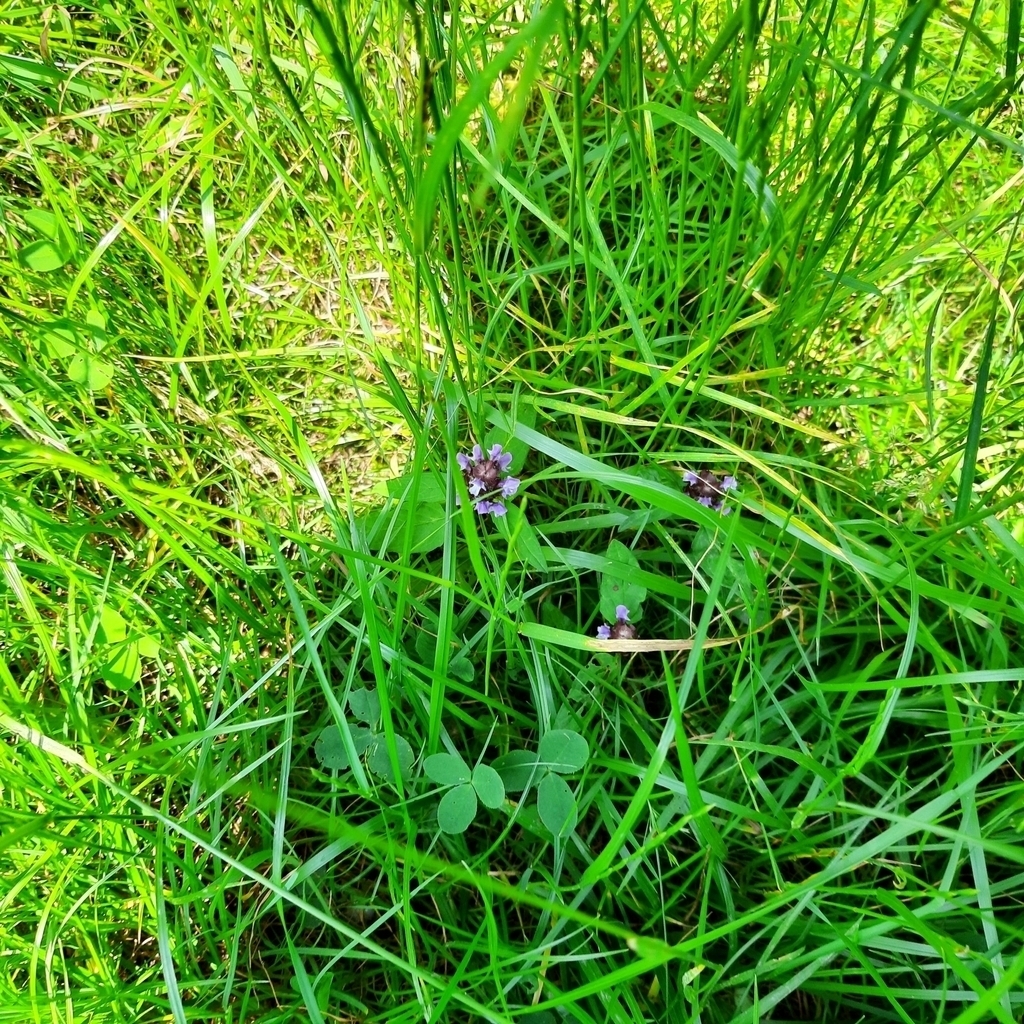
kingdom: Plantae
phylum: Tracheophyta
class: Magnoliopsida
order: Lamiales
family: Lamiaceae
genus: Prunella
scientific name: Prunella vulgaris
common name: Heal-all
